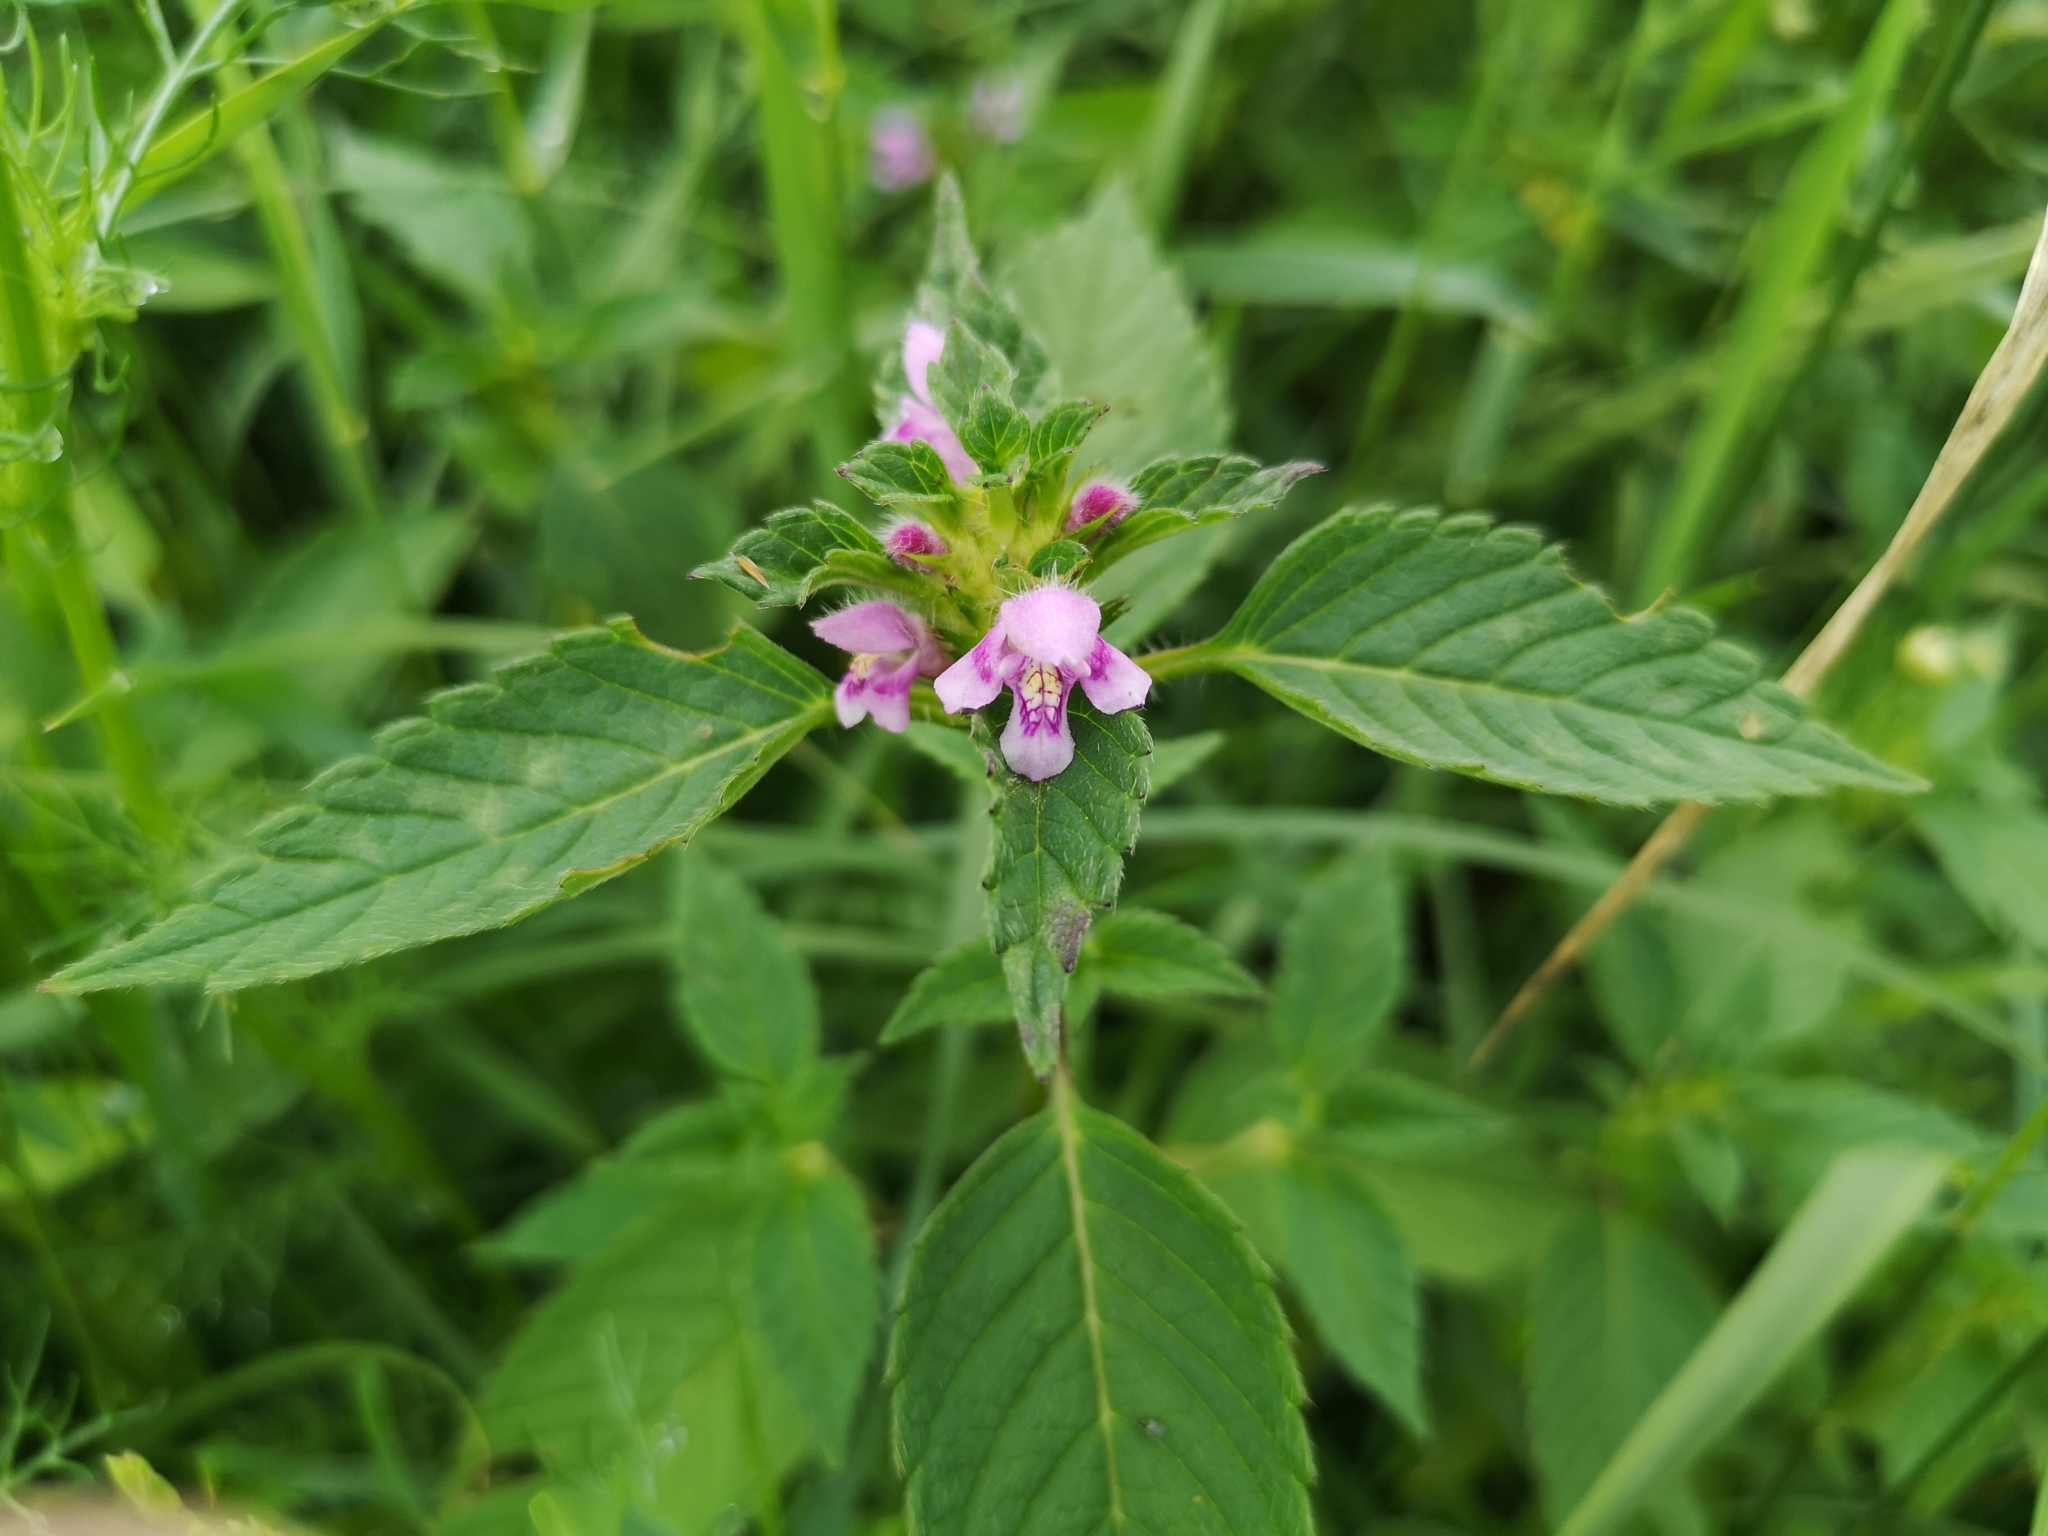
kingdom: Plantae
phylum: Tracheophyta
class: Magnoliopsida
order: Lamiales
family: Lamiaceae
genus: Galeopsis
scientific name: Galeopsis tetrahit
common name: Common hemp-nettle
